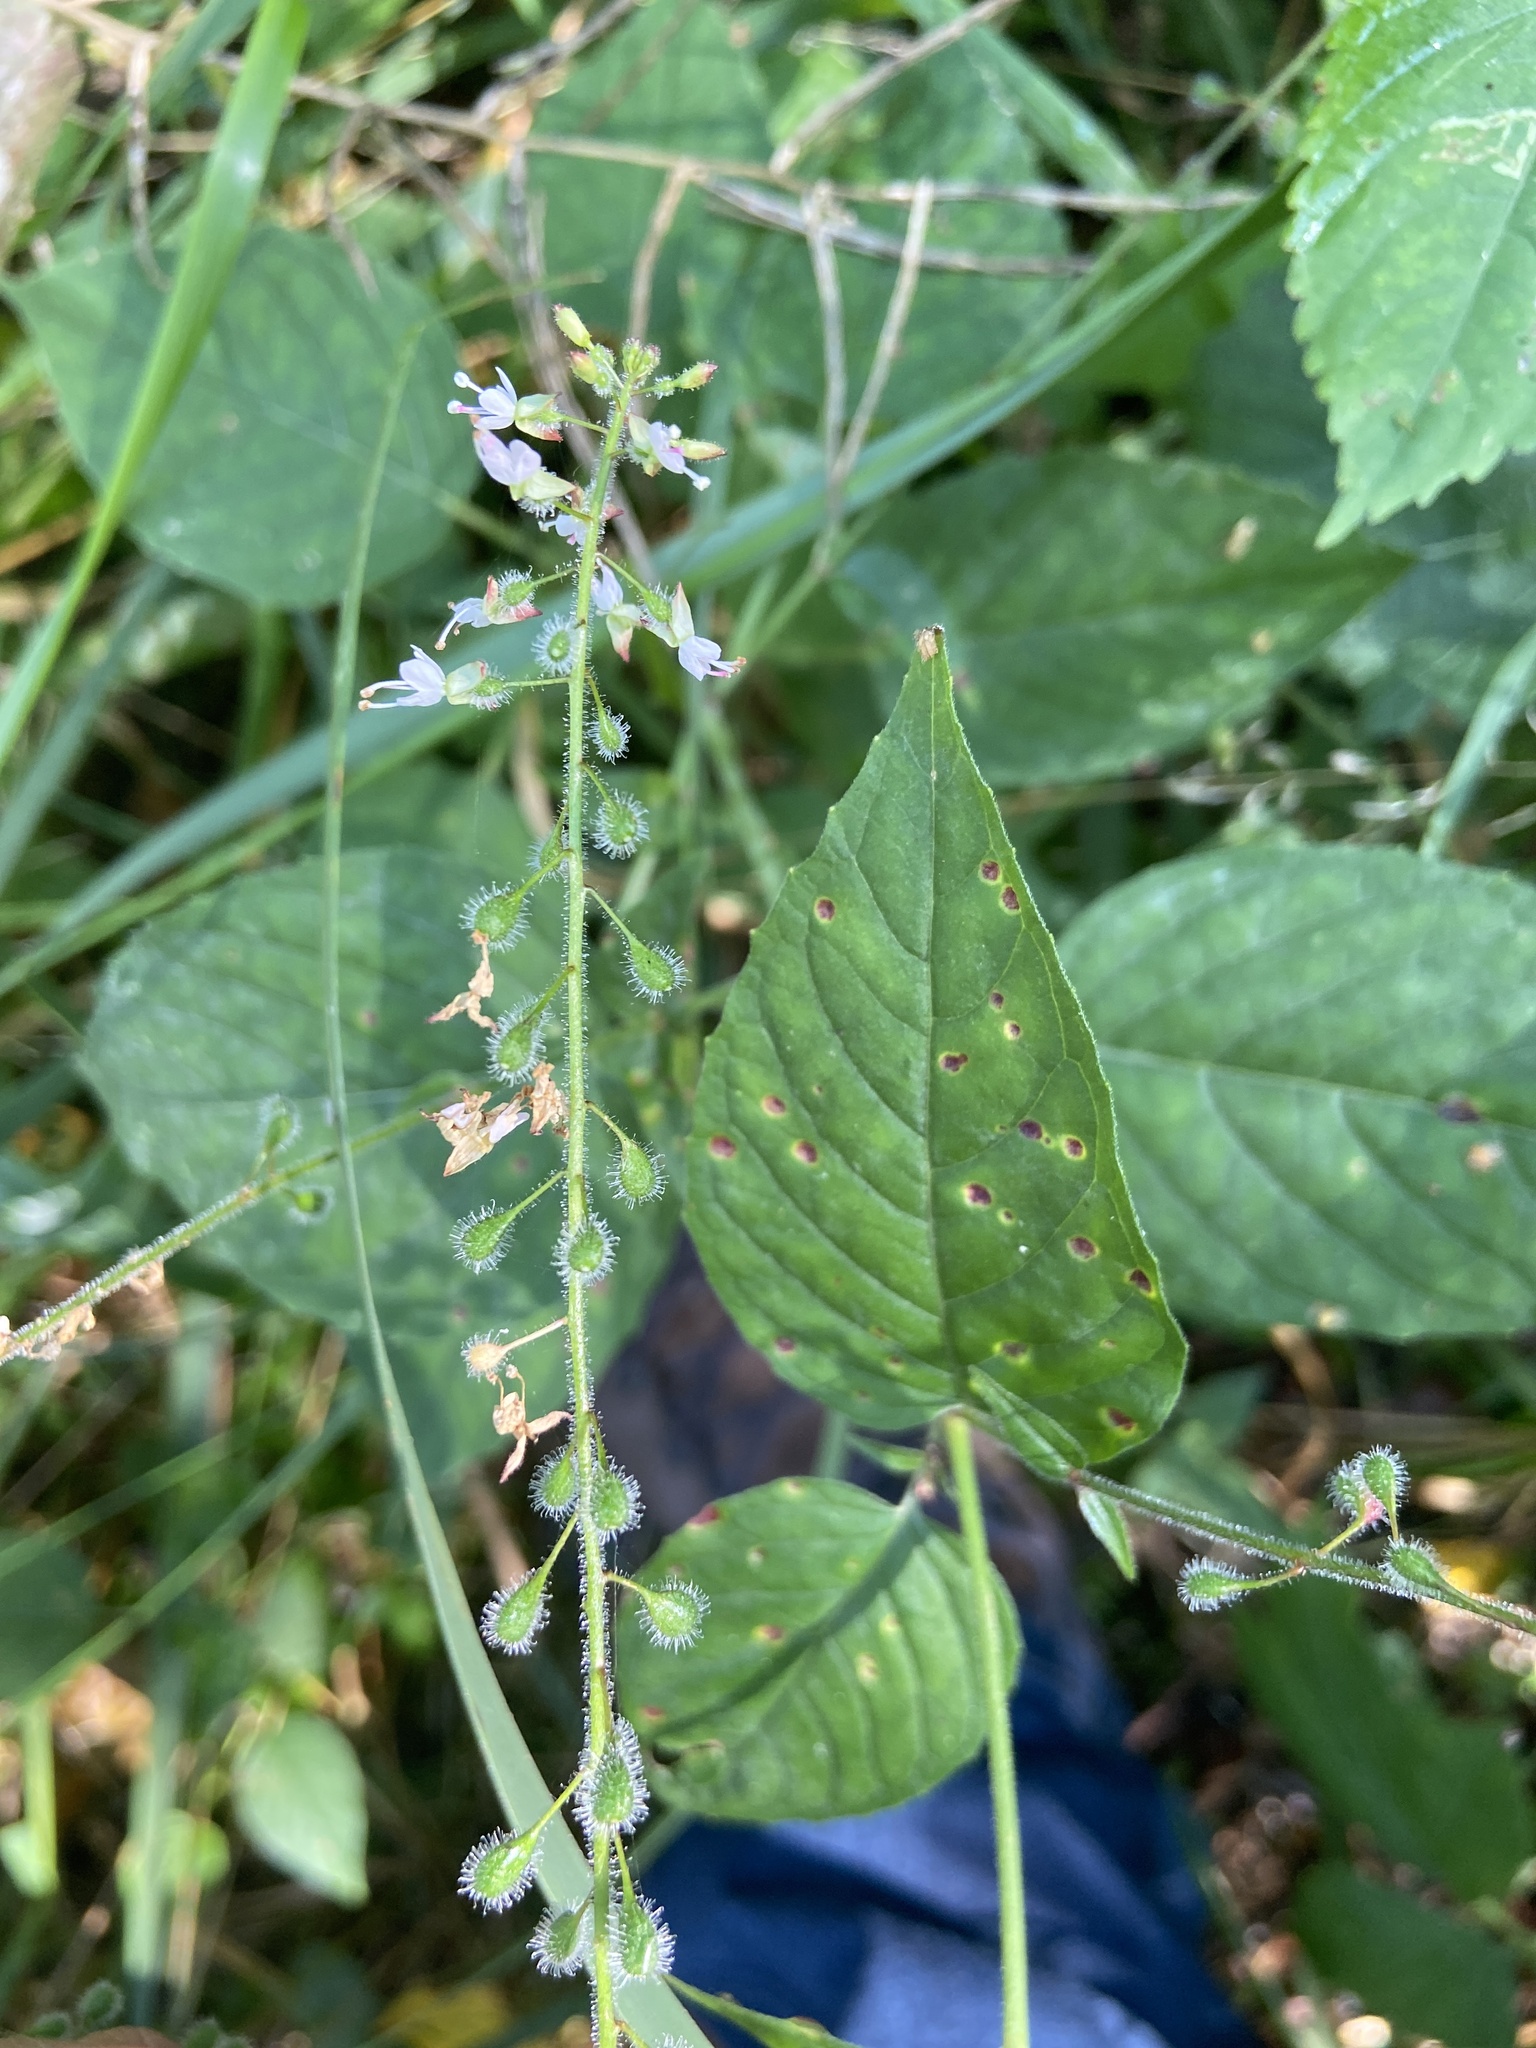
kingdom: Plantae
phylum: Tracheophyta
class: Magnoliopsida
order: Myrtales
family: Onagraceae
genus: Circaea
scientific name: Circaea lutetiana
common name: Enchanter's-nightshade
